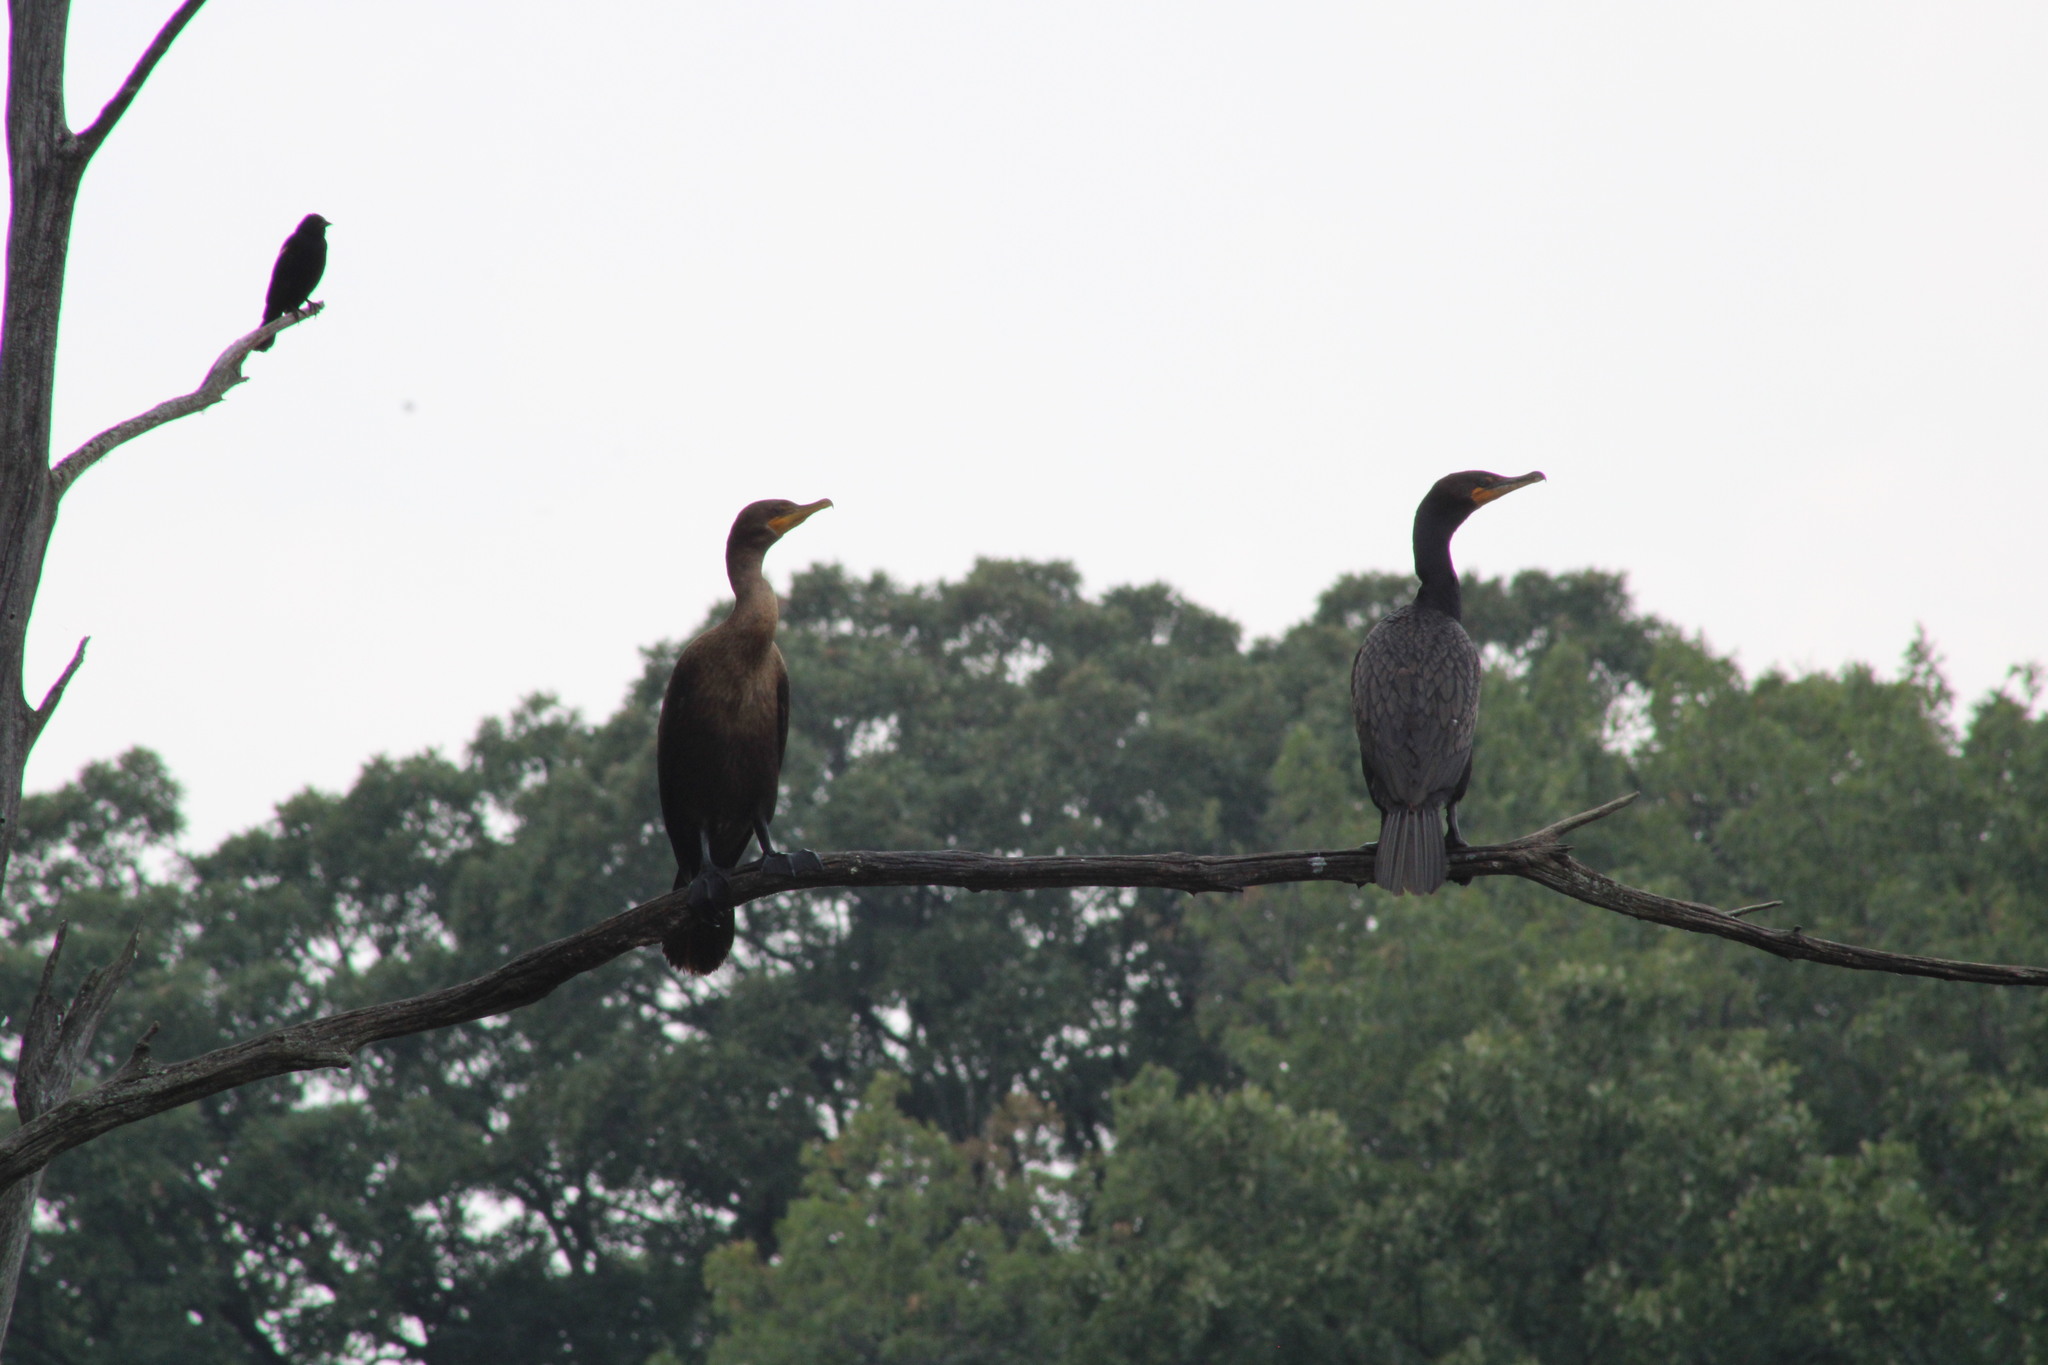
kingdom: Animalia
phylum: Chordata
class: Aves
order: Suliformes
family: Phalacrocoracidae
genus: Phalacrocorax
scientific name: Phalacrocorax auritus
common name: Double-crested cormorant
